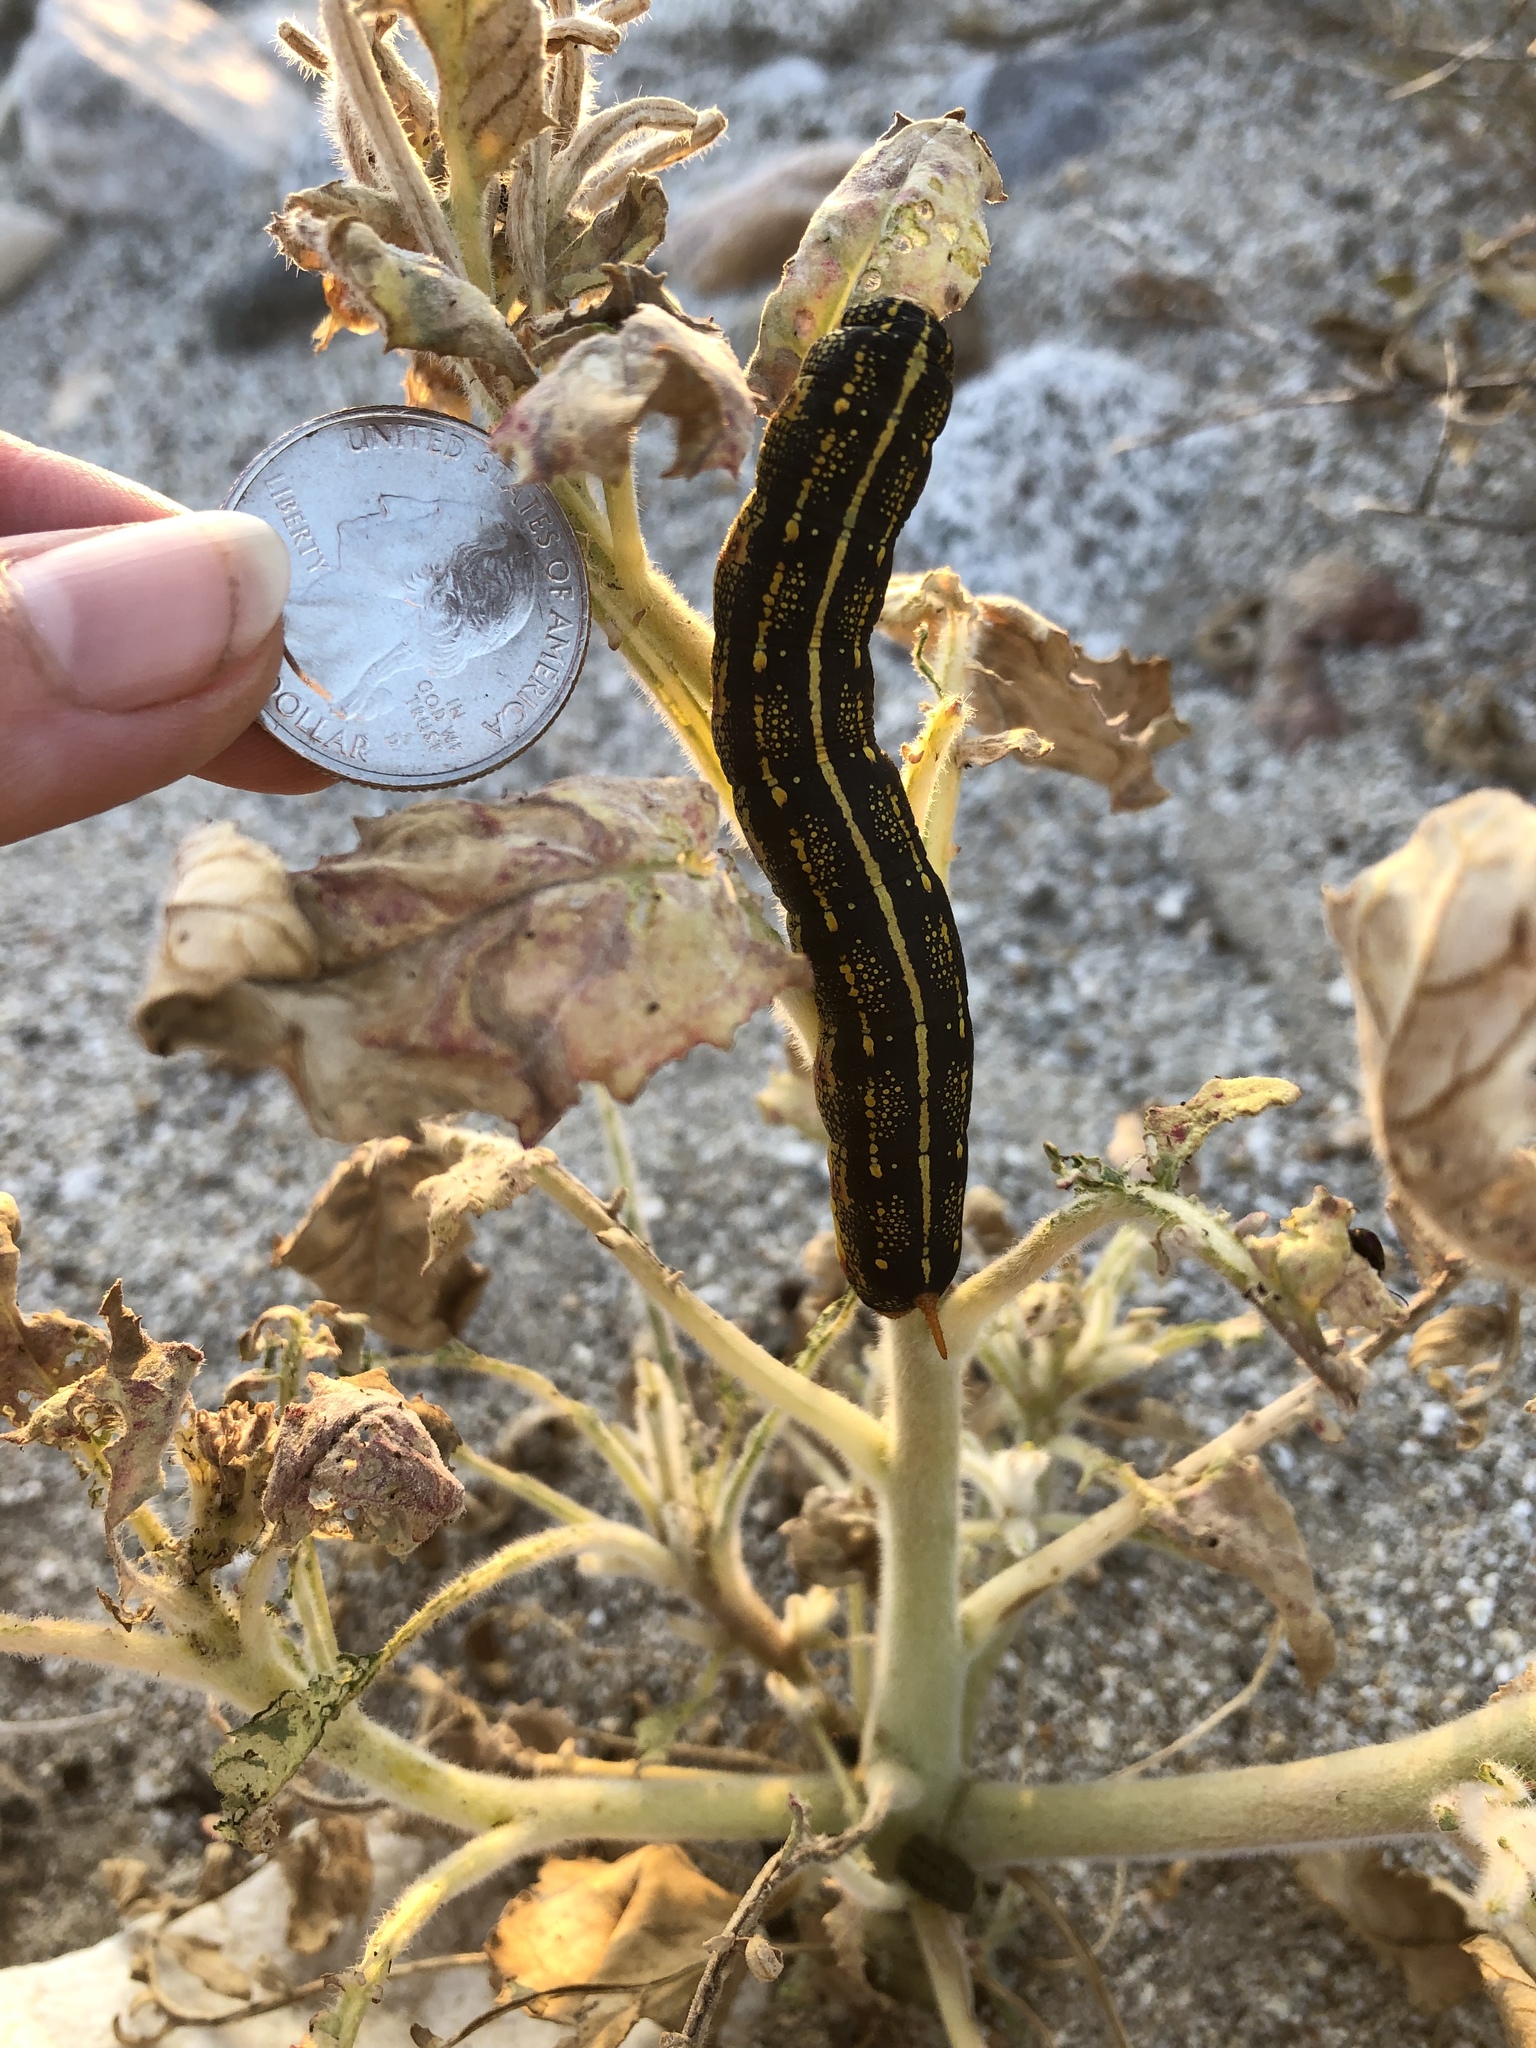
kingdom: Animalia
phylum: Arthropoda
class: Insecta
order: Lepidoptera
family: Sphingidae
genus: Hyles
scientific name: Hyles lineata
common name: White-lined sphinx
